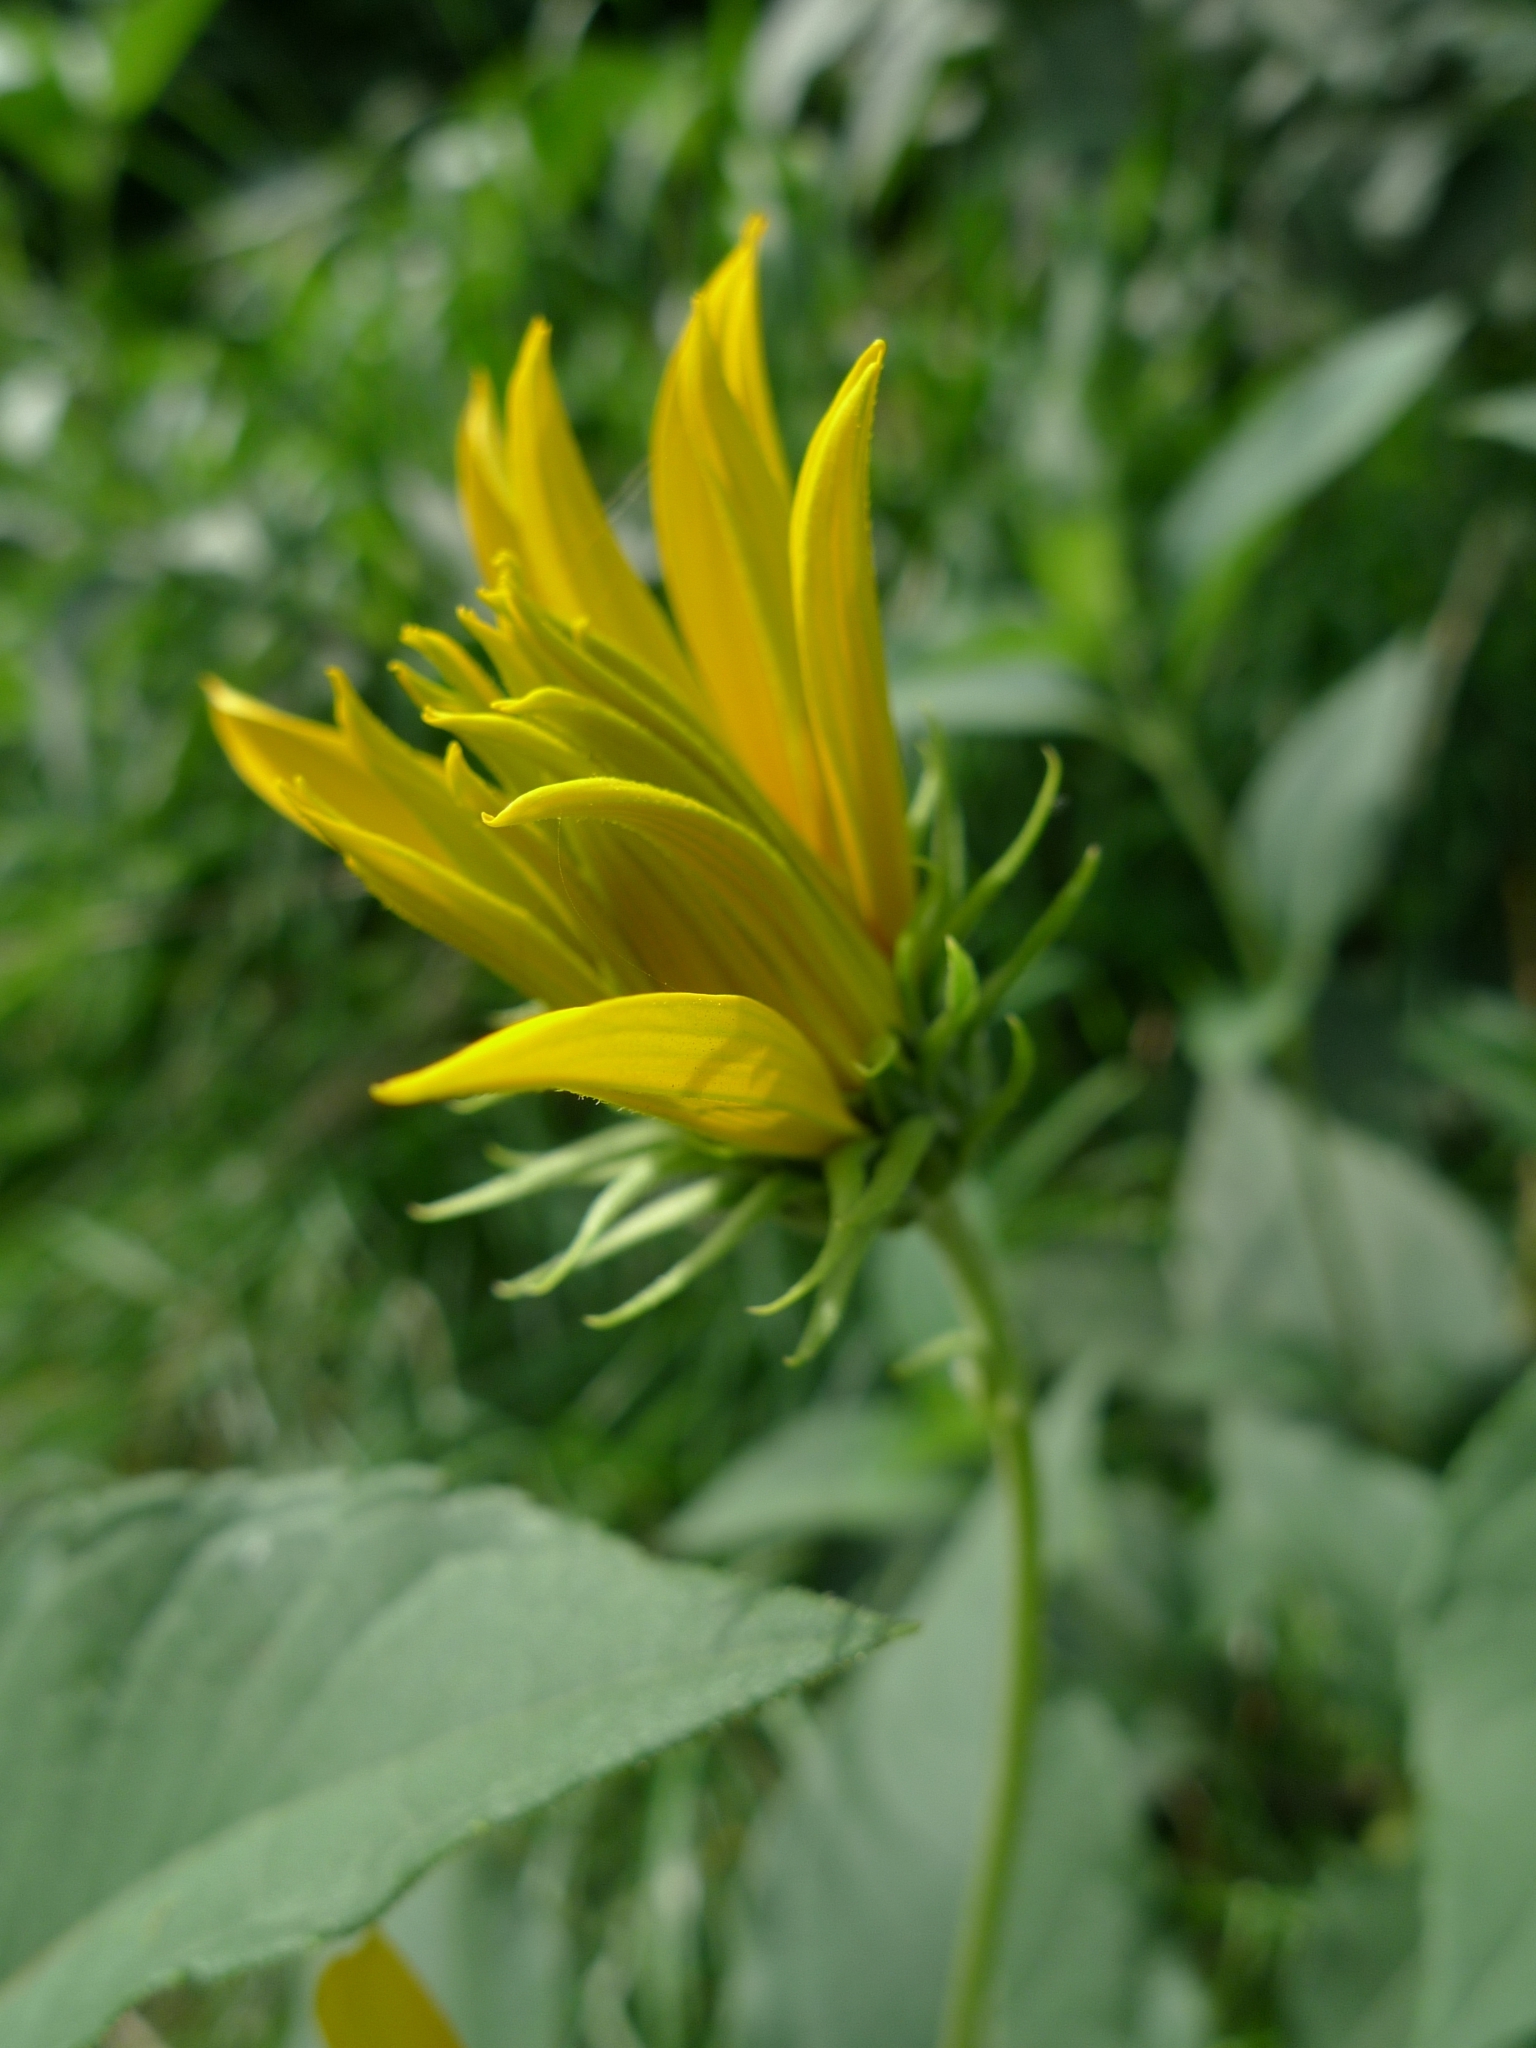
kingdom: Plantae
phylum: Tracheophyta
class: Magnoliopsida
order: Asterales
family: Asteraceae
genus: Helianthus
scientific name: Helianthus tuberosus
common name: Jerusalem artichoke
